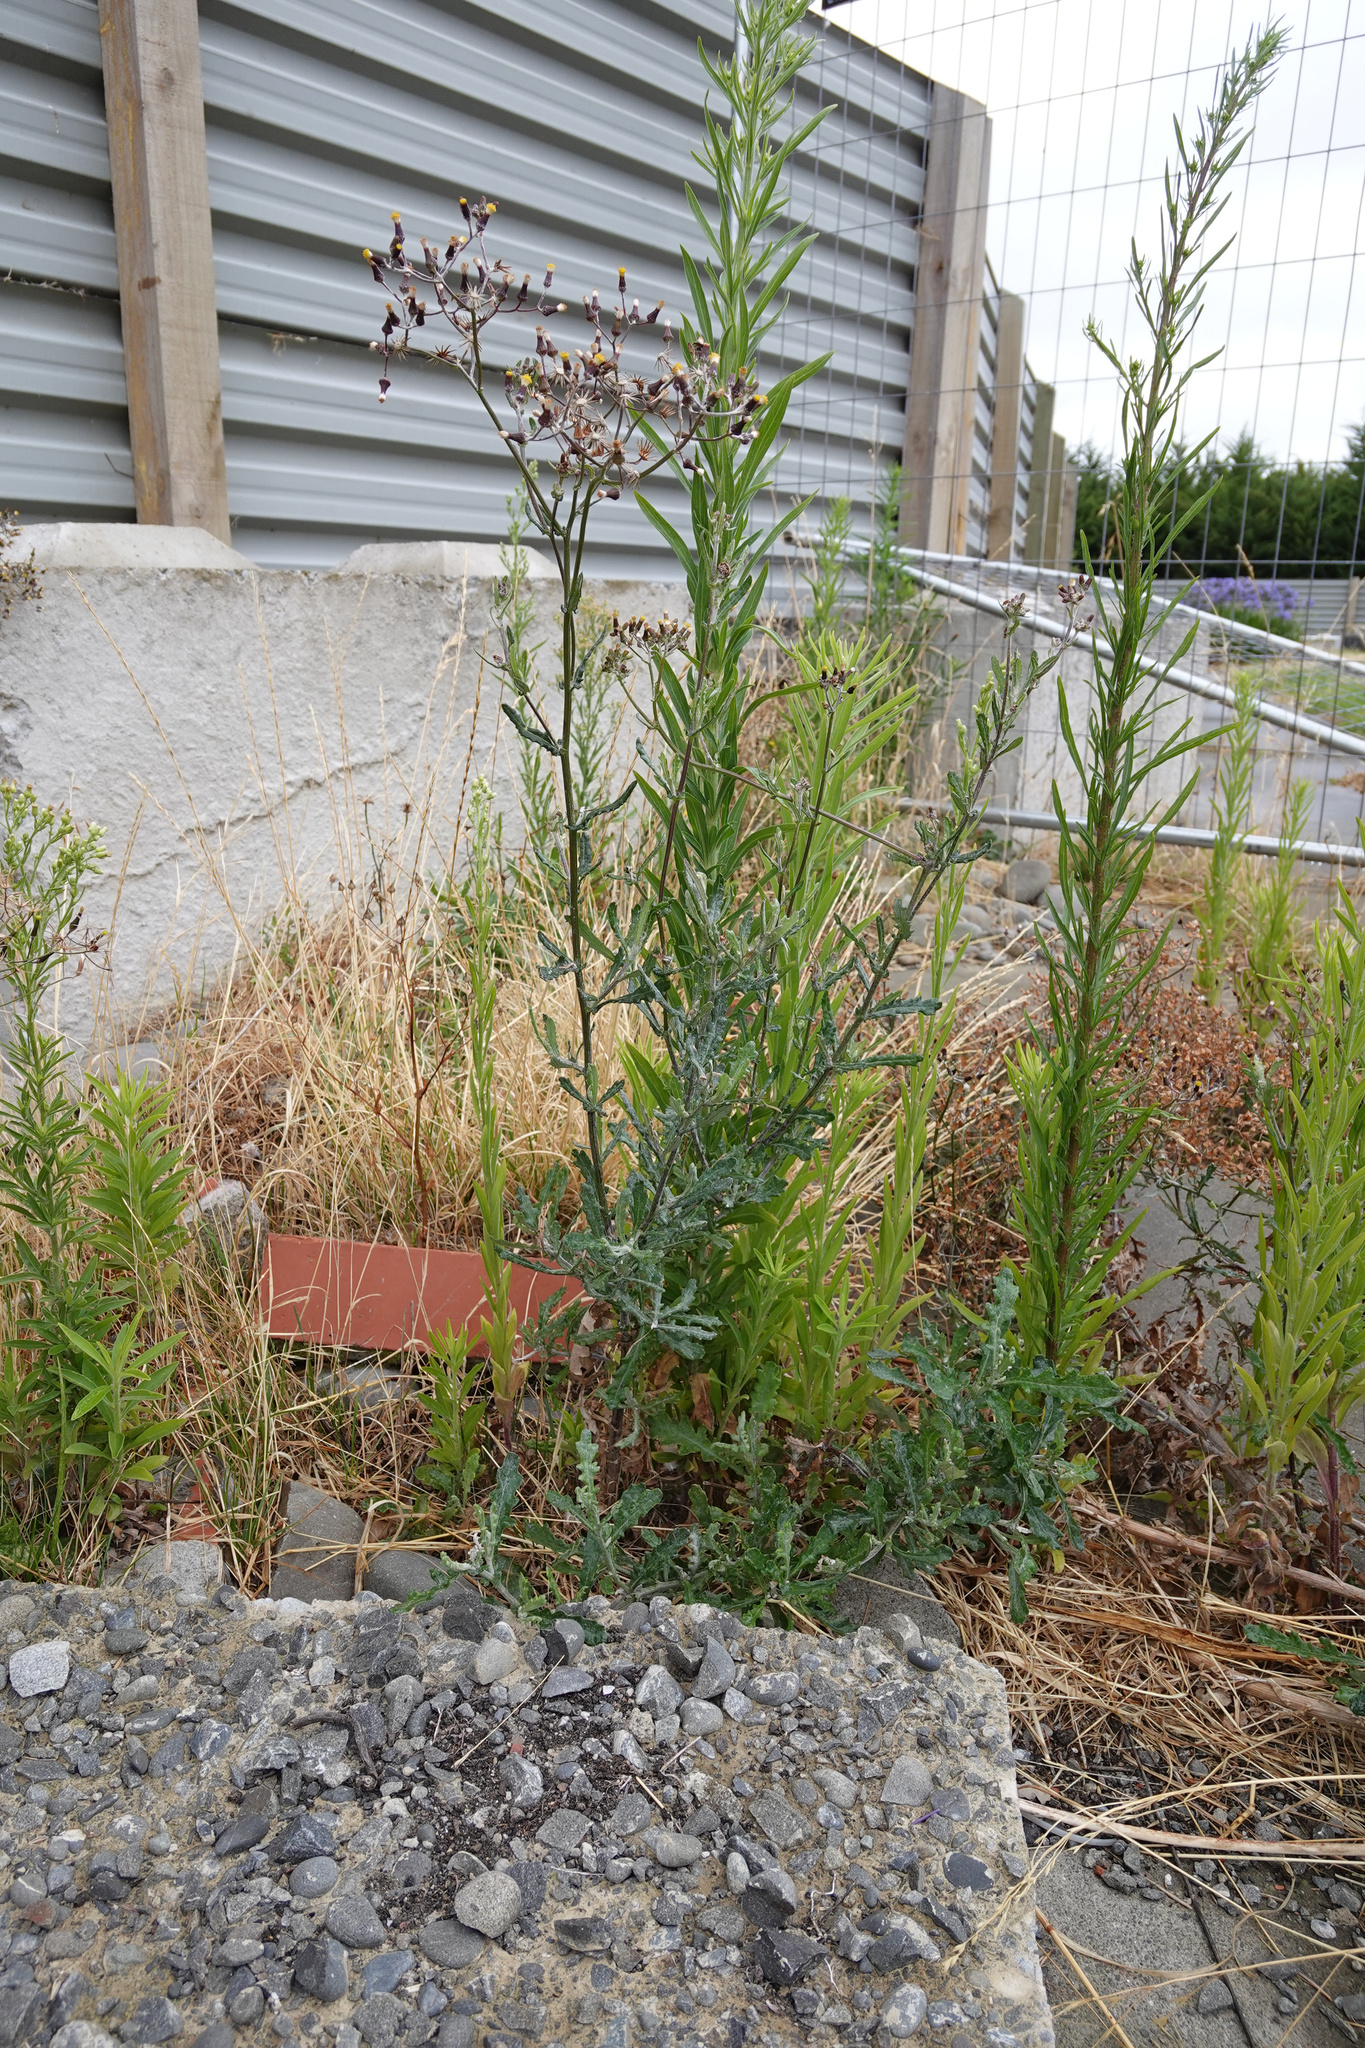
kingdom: Plantae
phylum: Tracheophyta
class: Magnoliopsida
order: Asterales
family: Asteraceae
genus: Senecio
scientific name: Senecio glomeratus
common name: Cutleaf burnweed
